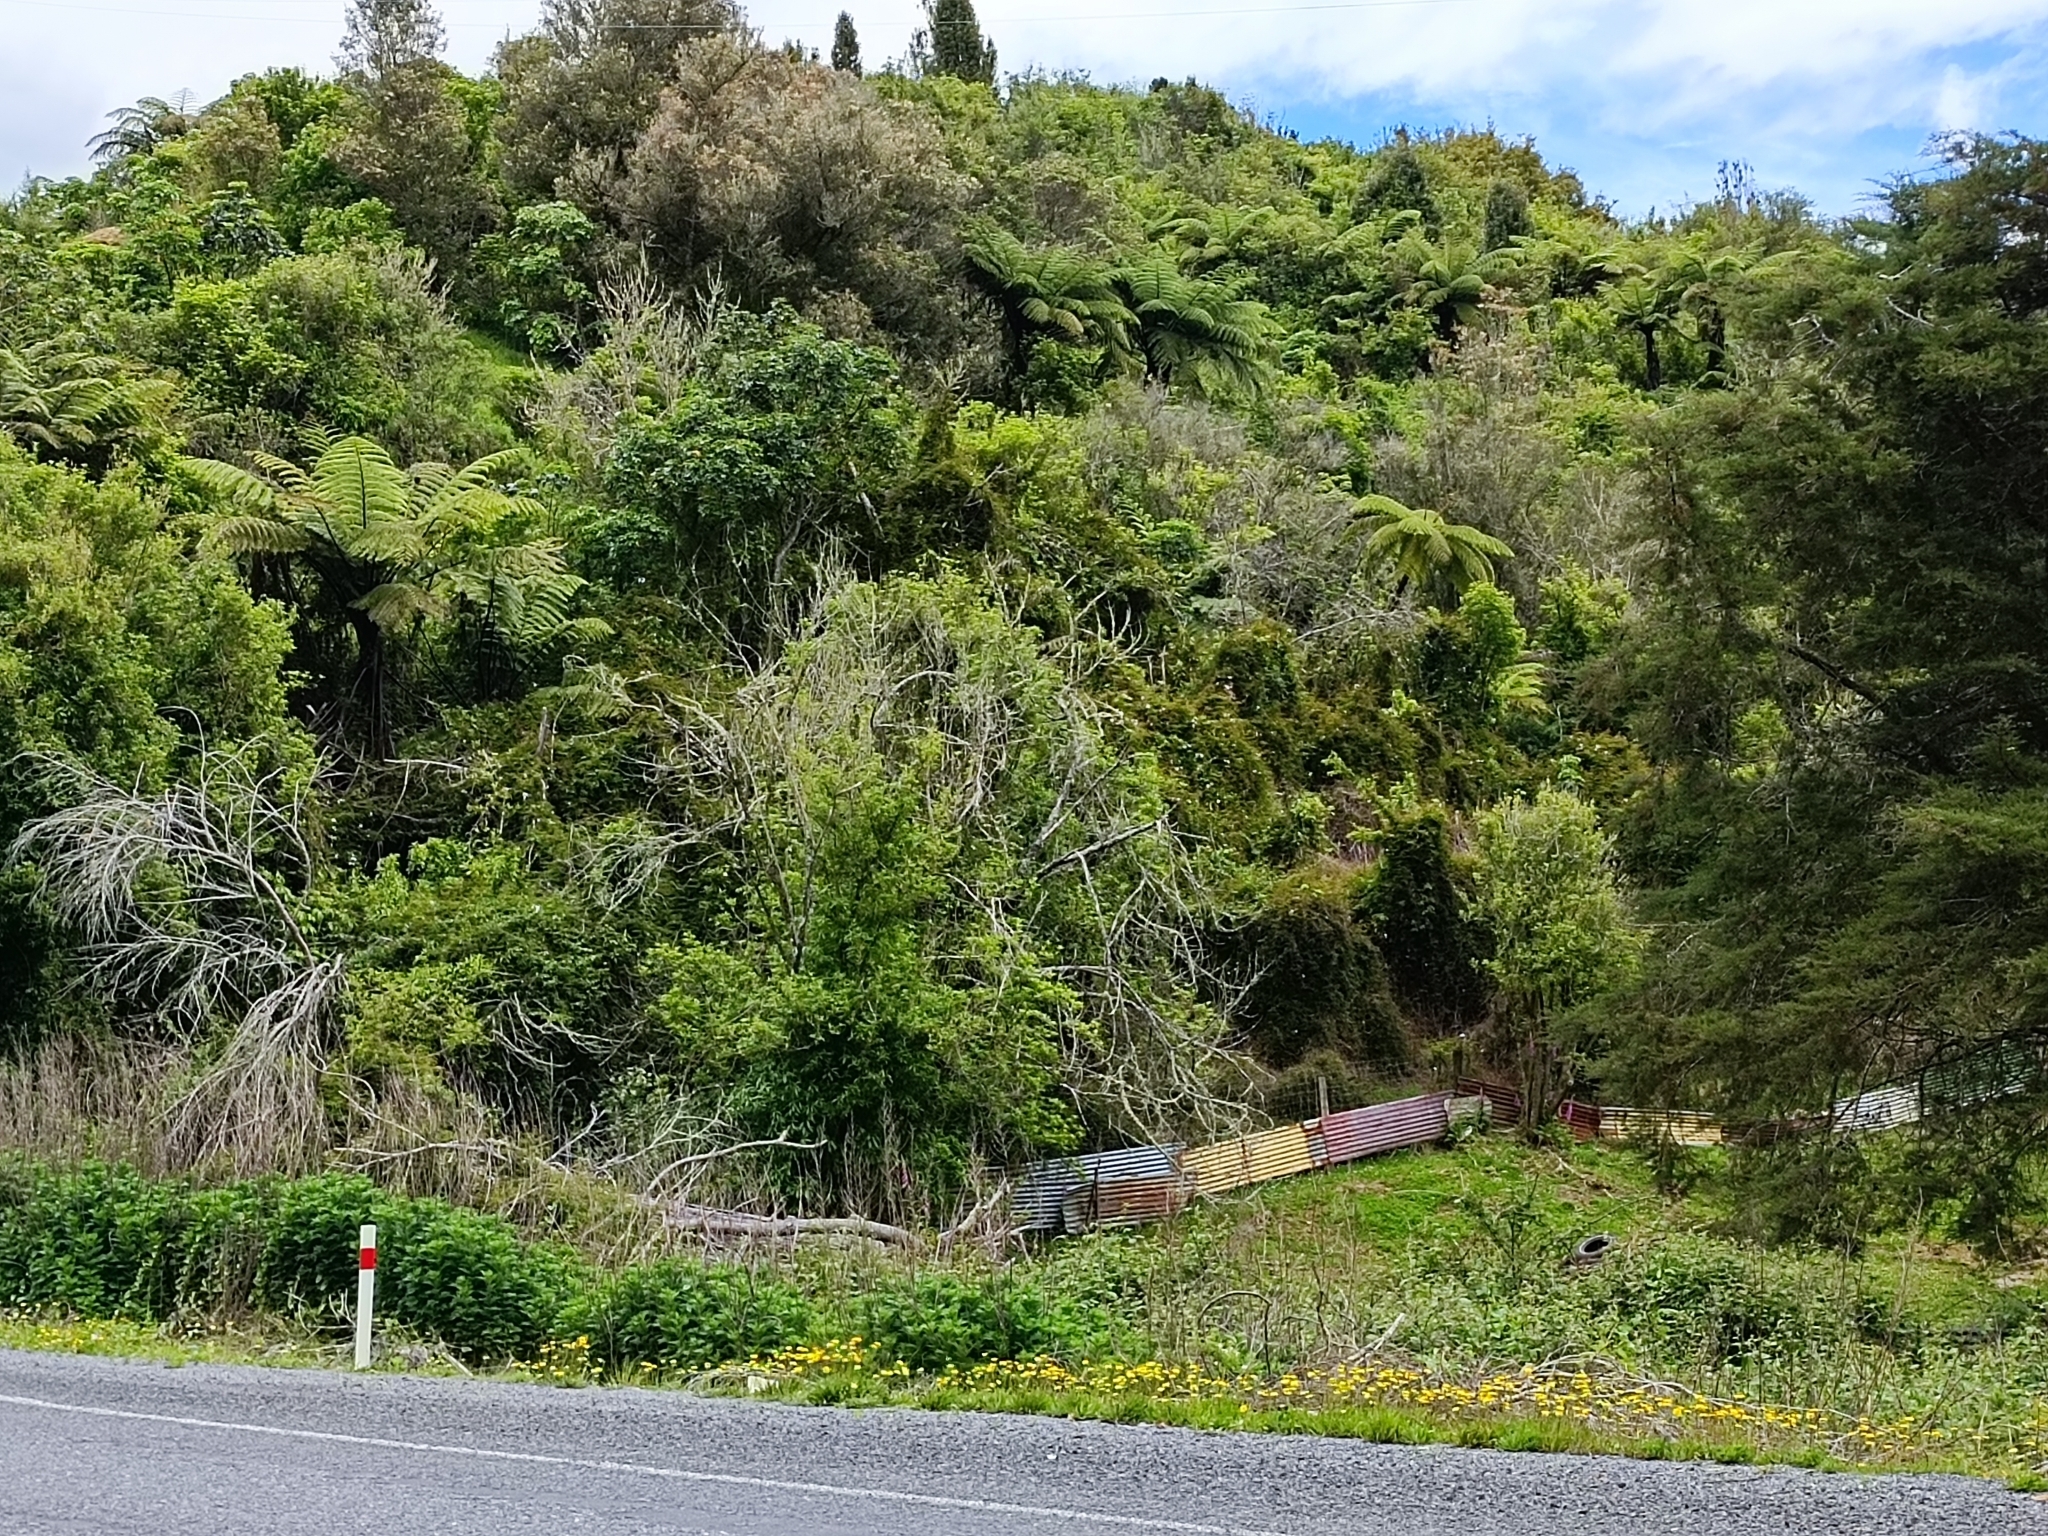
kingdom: Plantae
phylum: Tracheophyta
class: Magnoliopsida
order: Lamiales
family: Oleaceae
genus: Jasminum
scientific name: Jasminum polyanthum
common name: Pink jasmine
